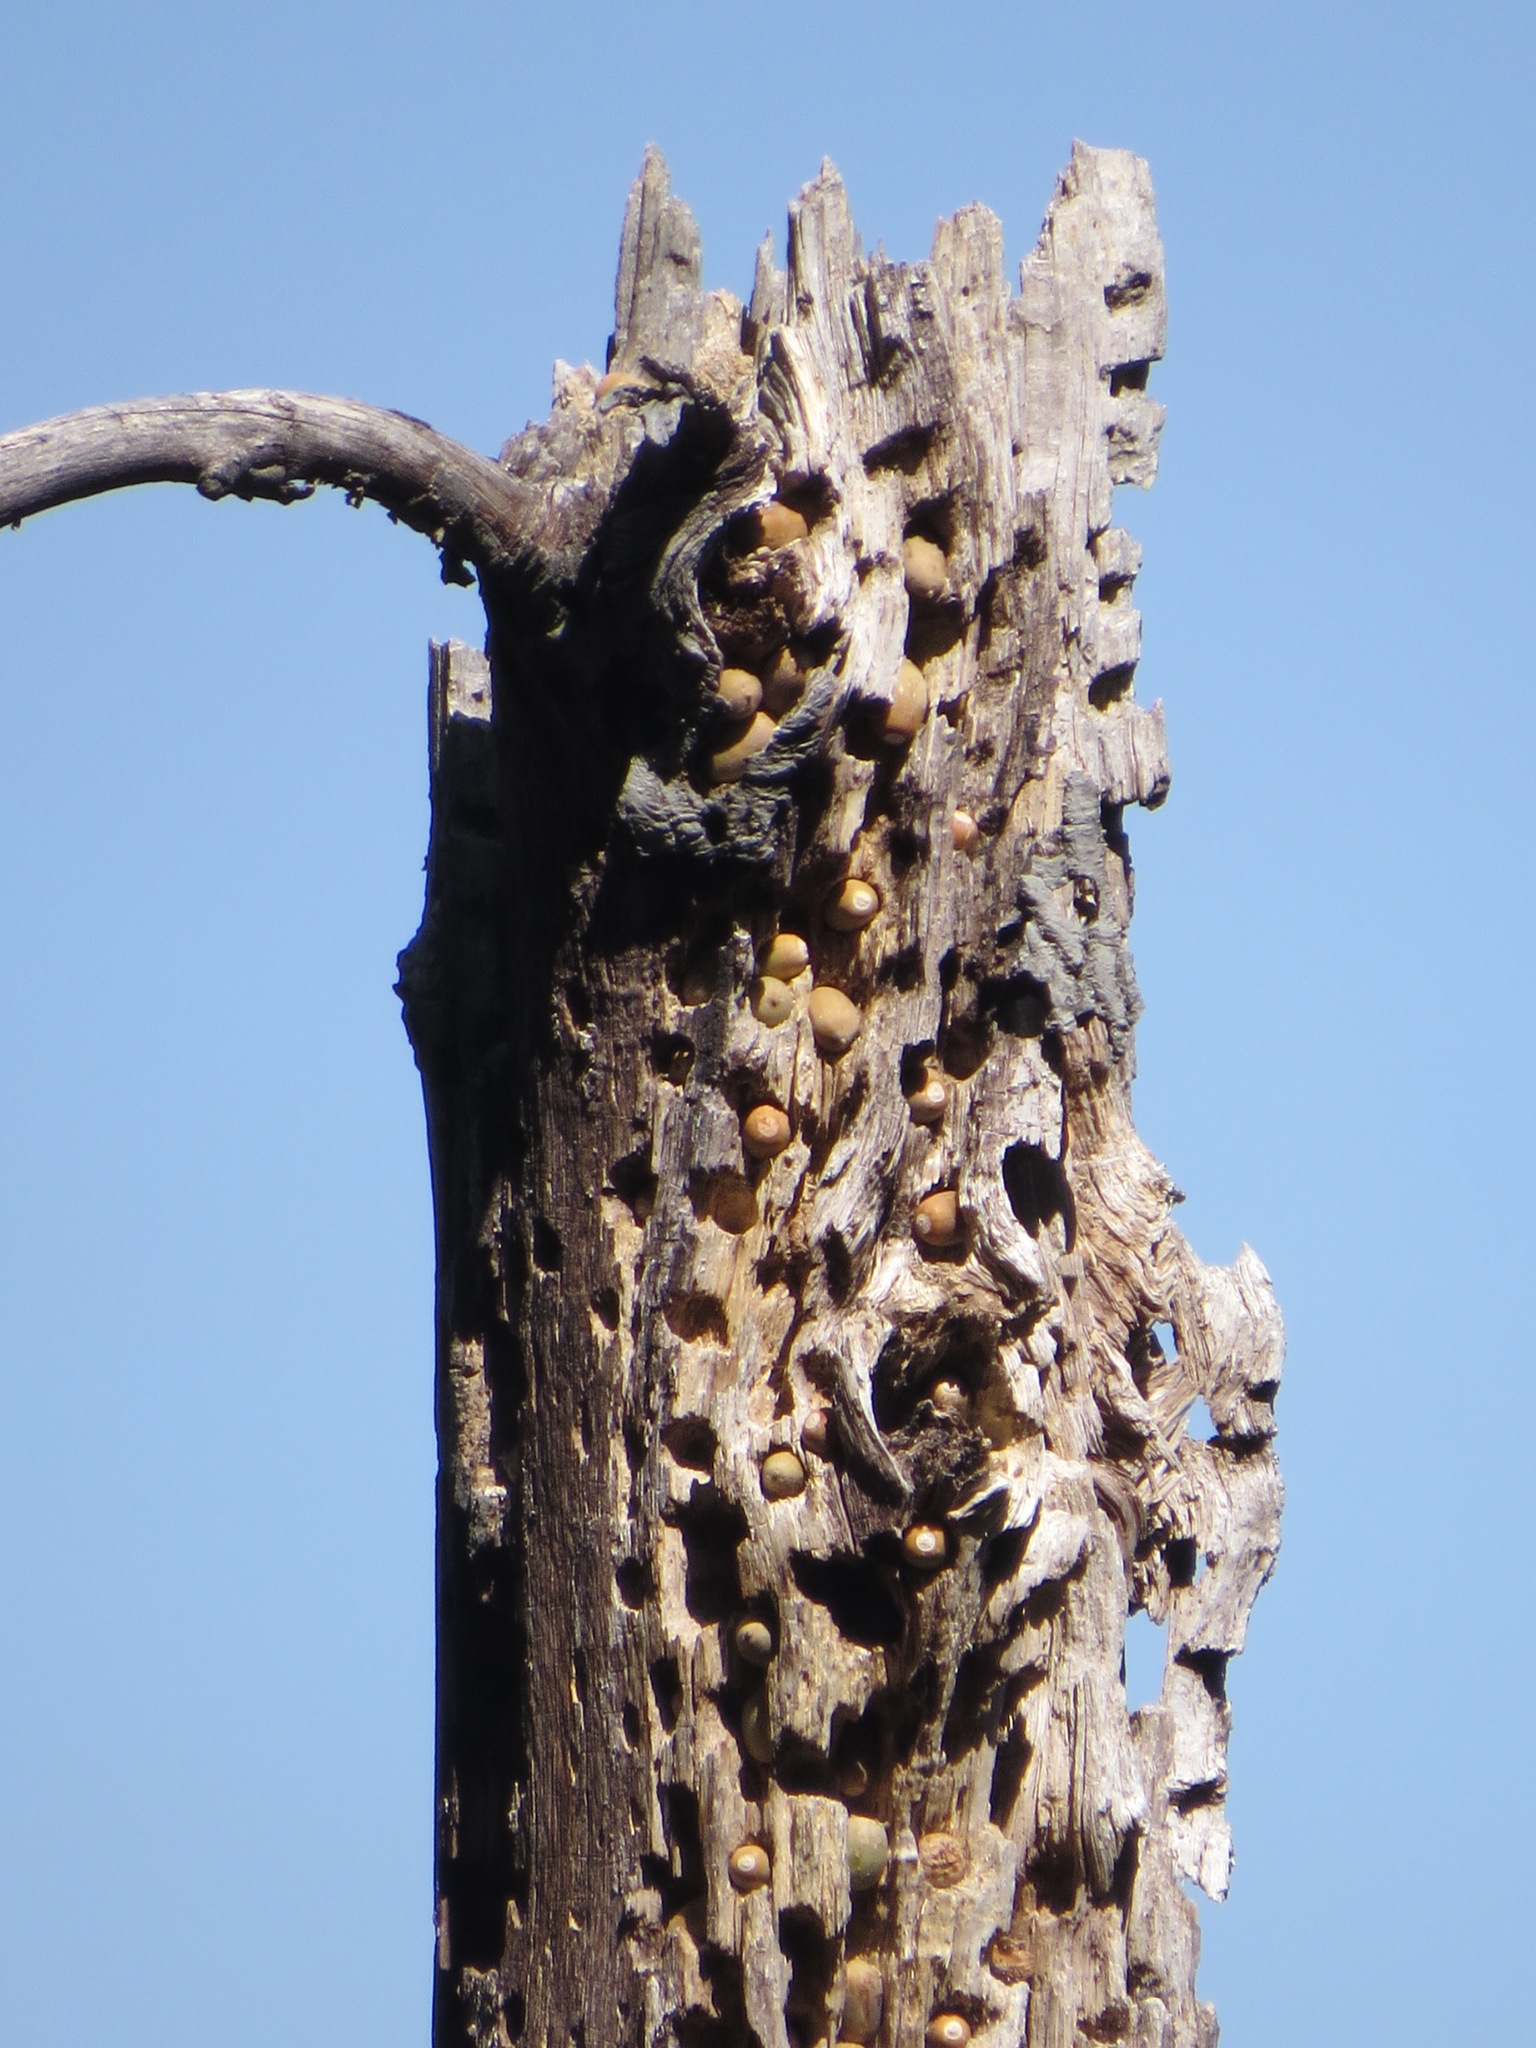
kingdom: Animalia
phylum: Chordata
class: Aves
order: Piciformes
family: Picidae
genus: Melanerpes
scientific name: Melanerpes formicivorus
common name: Acorn woodpecker
